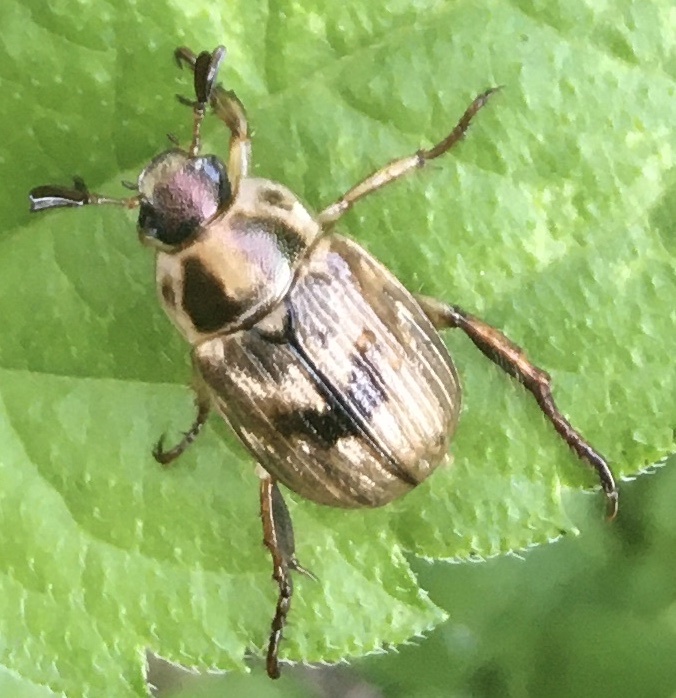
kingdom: Animalia
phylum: Arthropoda
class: Insecta
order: Coleoptera
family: Scarabaeidae
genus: Exomala
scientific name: Exomala orientalis
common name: Oriental beetle
